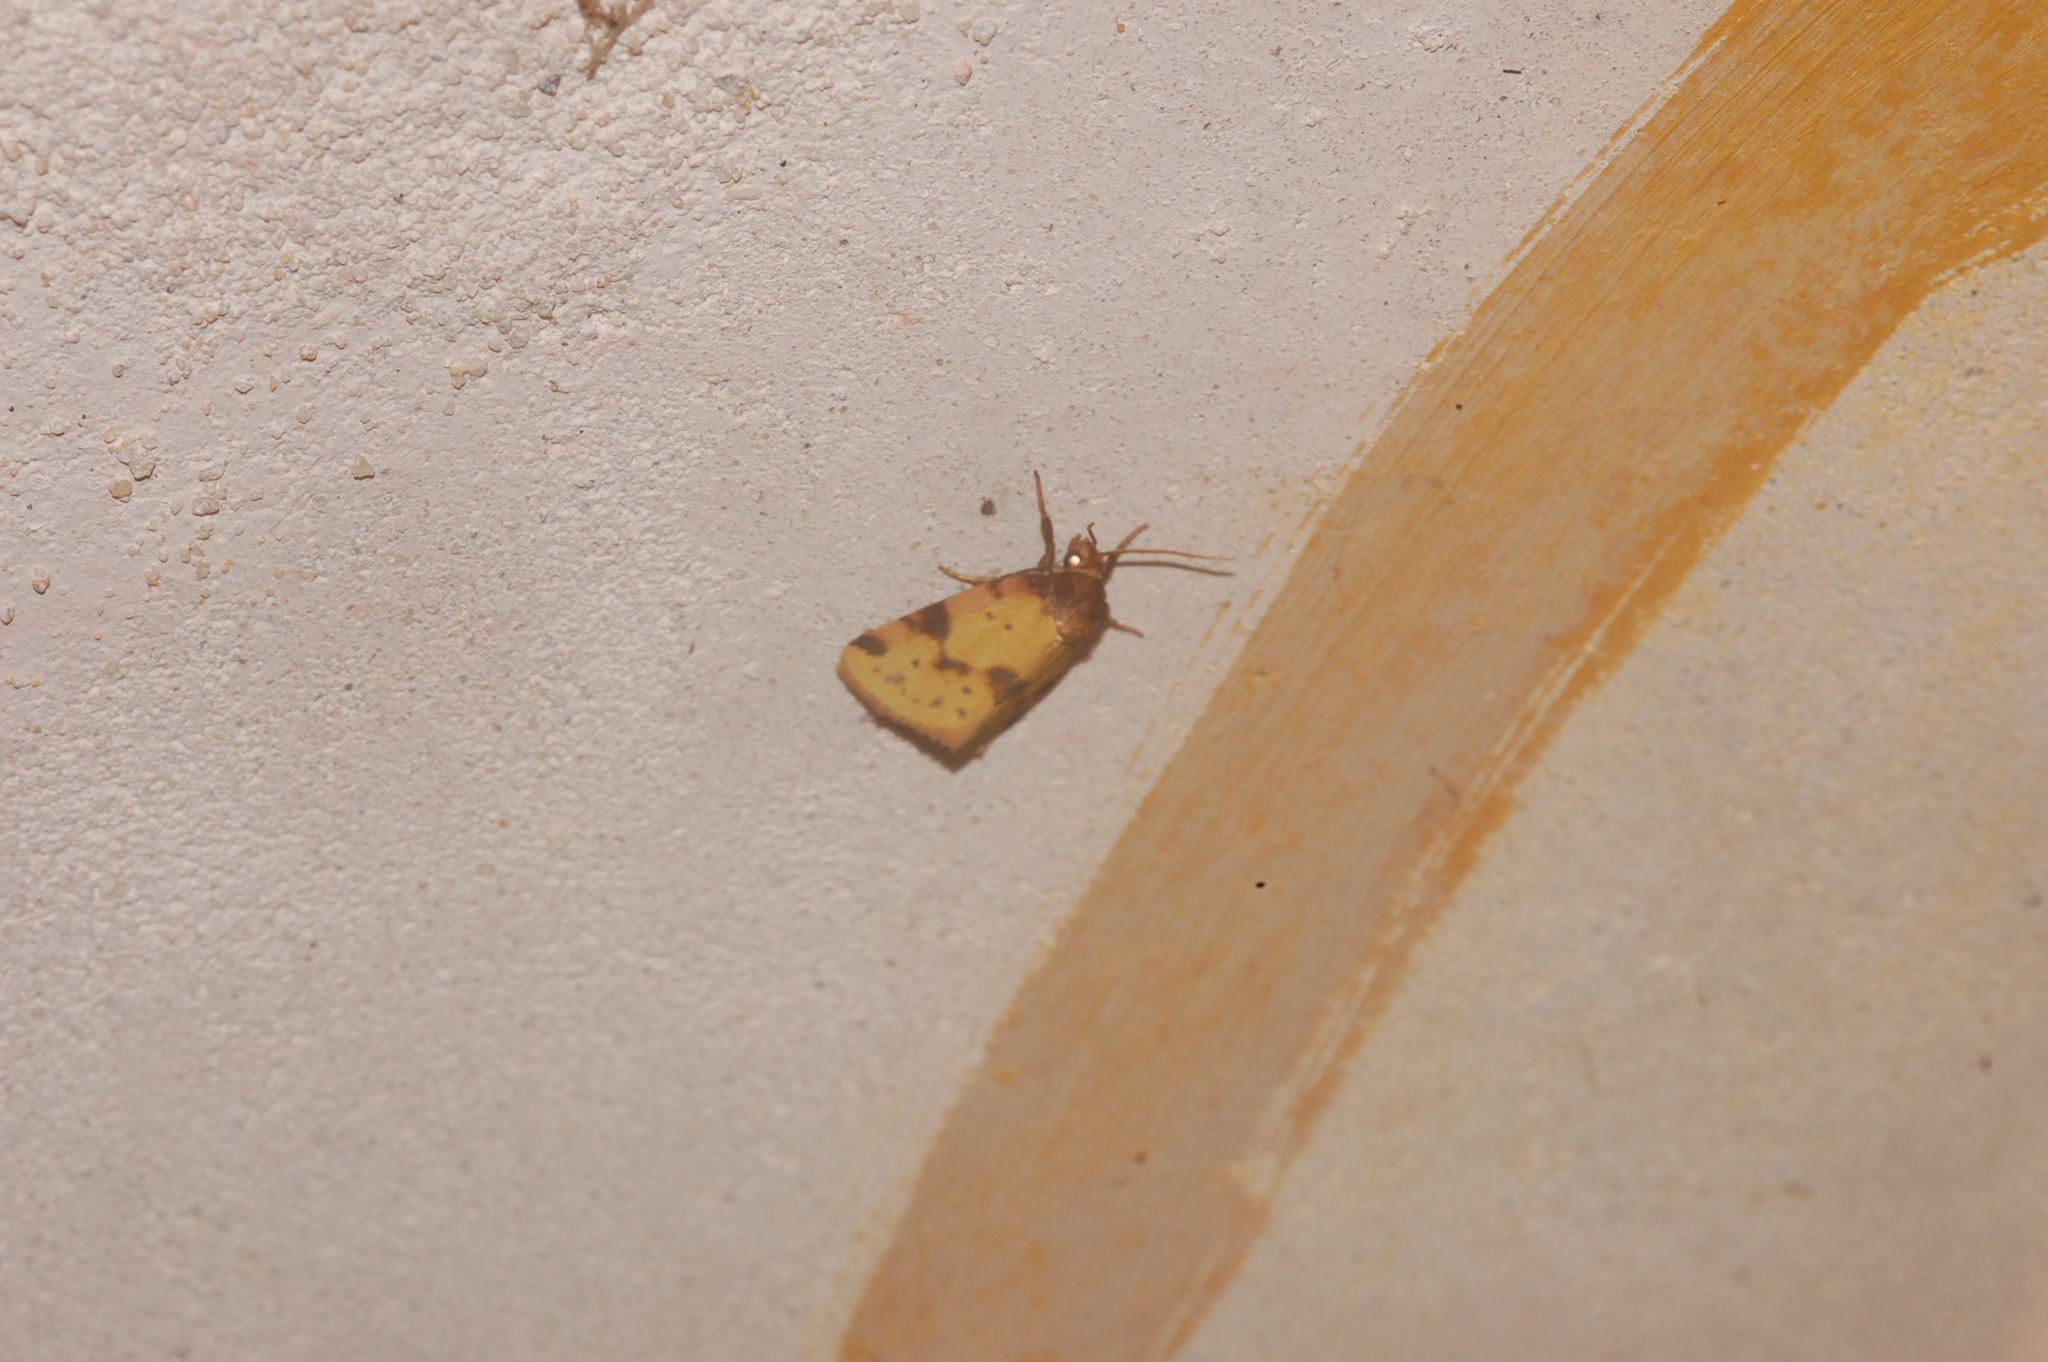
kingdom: Animalia
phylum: Arthropoda
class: Insecta
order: Lepidoptera
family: Noctuidae
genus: Azenia
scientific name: Azenia obtusa
